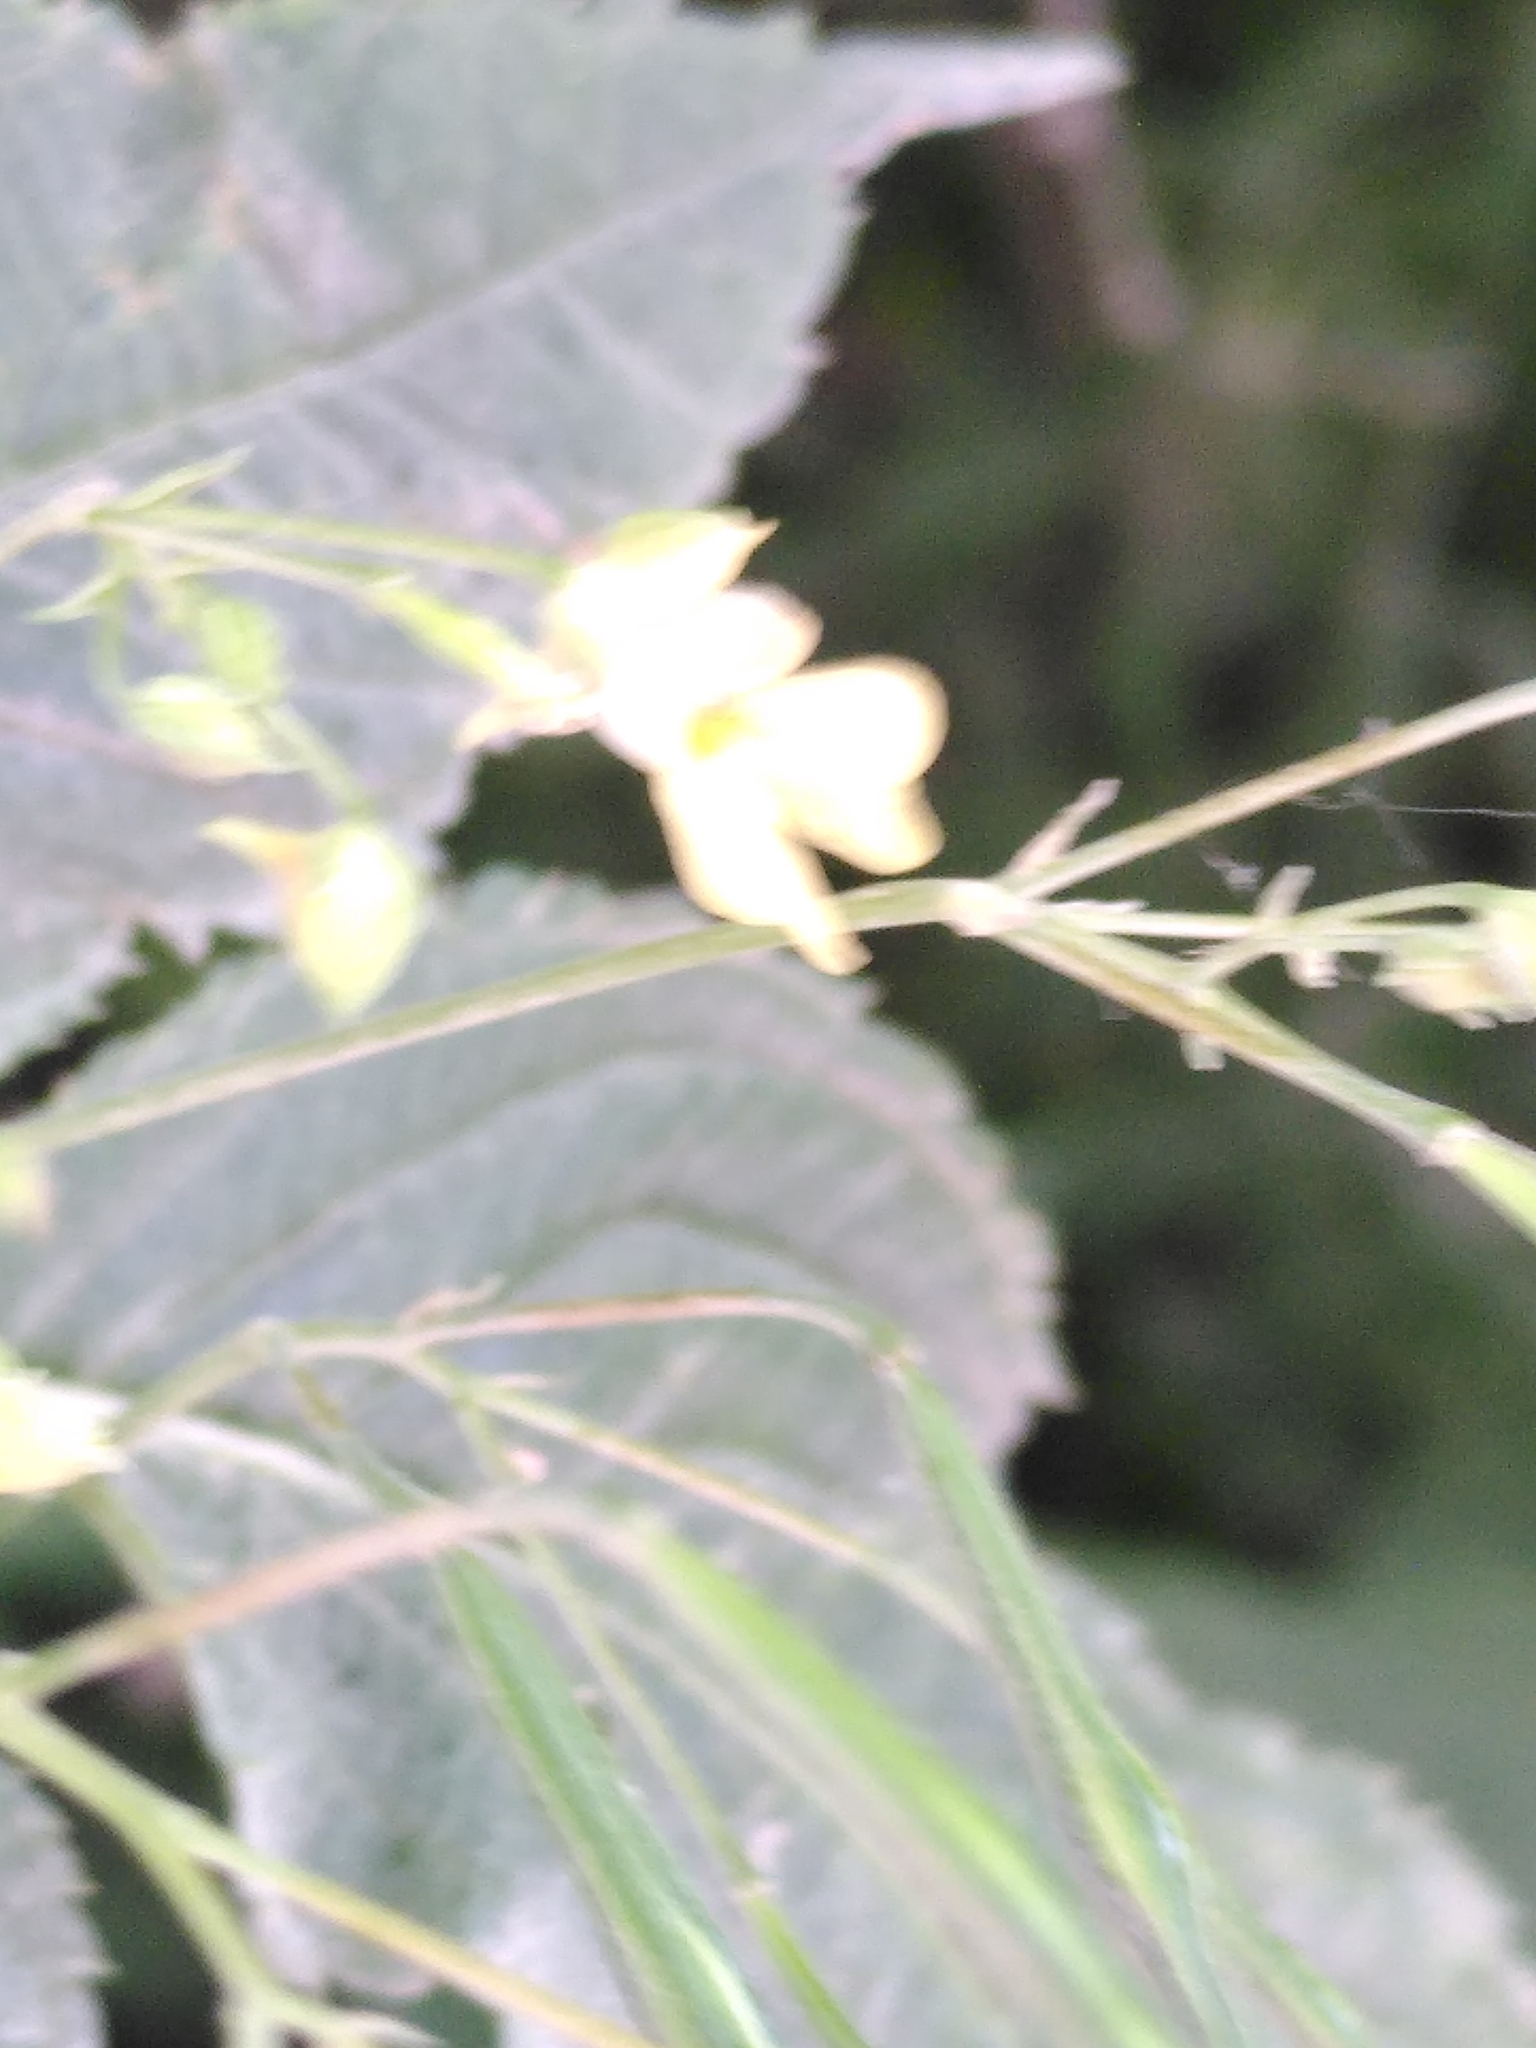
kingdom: Plantae
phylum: Tracheophyta
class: Magnoliopsida
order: Ericales
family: Balsaminaceae
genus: Impatiens
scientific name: Impatiens parviflora
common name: Small balsam
